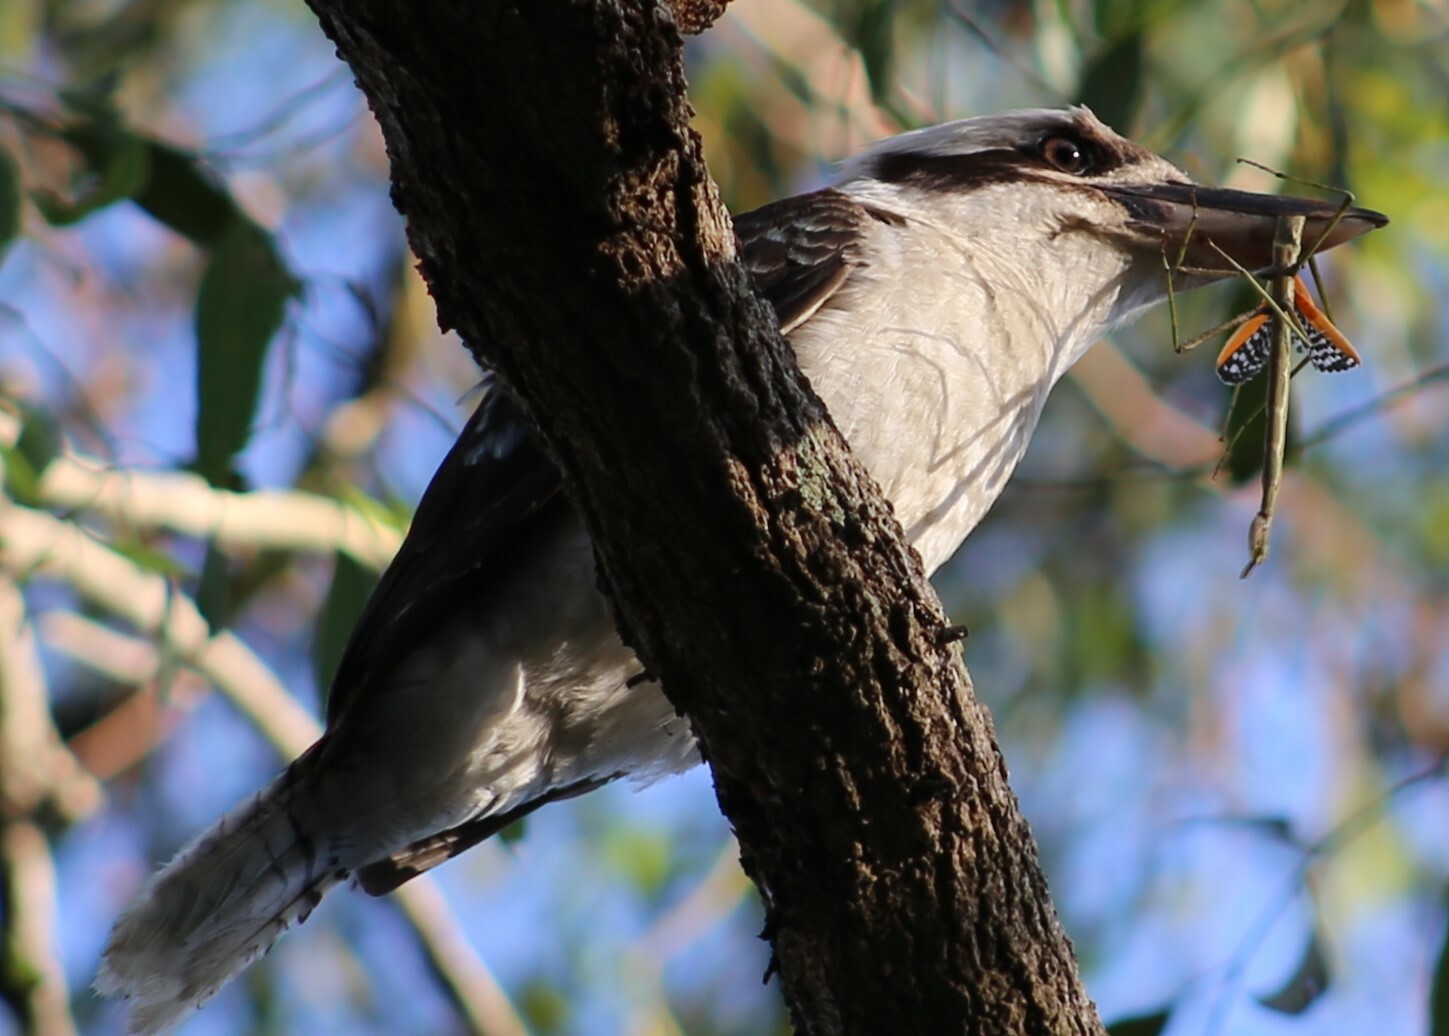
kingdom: Animalia
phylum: Chordata
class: Aves
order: Coraciiformes
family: Alcedinidae
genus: Dacelo
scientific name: Dacelo novaeguineae
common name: Laughing kookaburra
